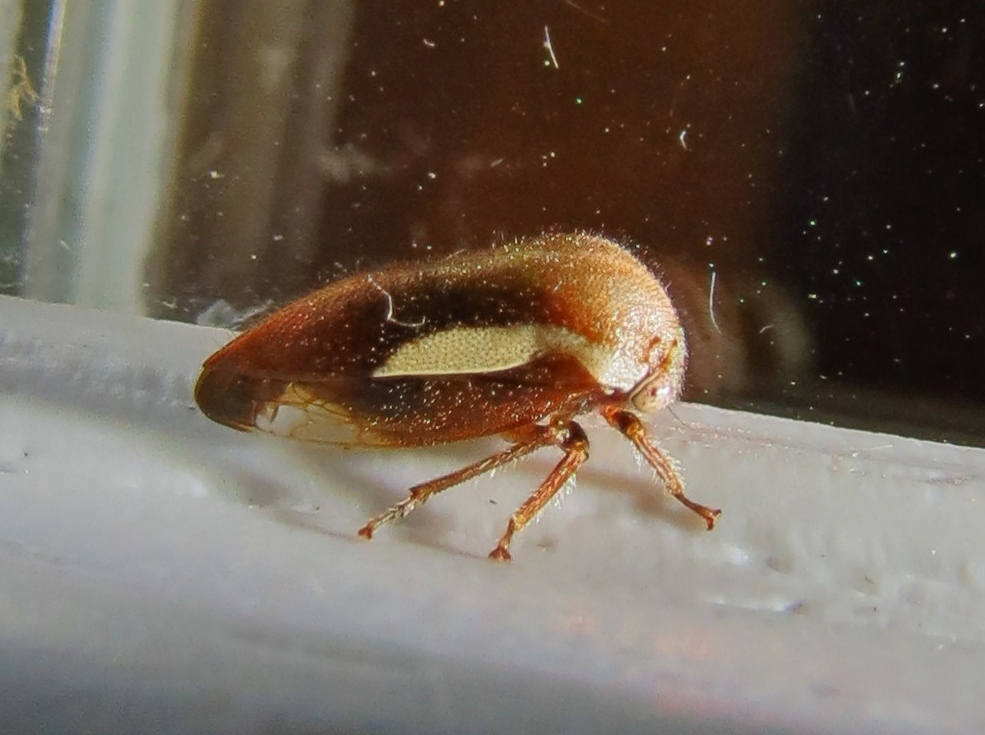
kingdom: Animalia
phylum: Arthropoda
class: Insecta
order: Hemiptera
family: Membracidae
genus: Ophiderma
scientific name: Ophiderma flavicephala
